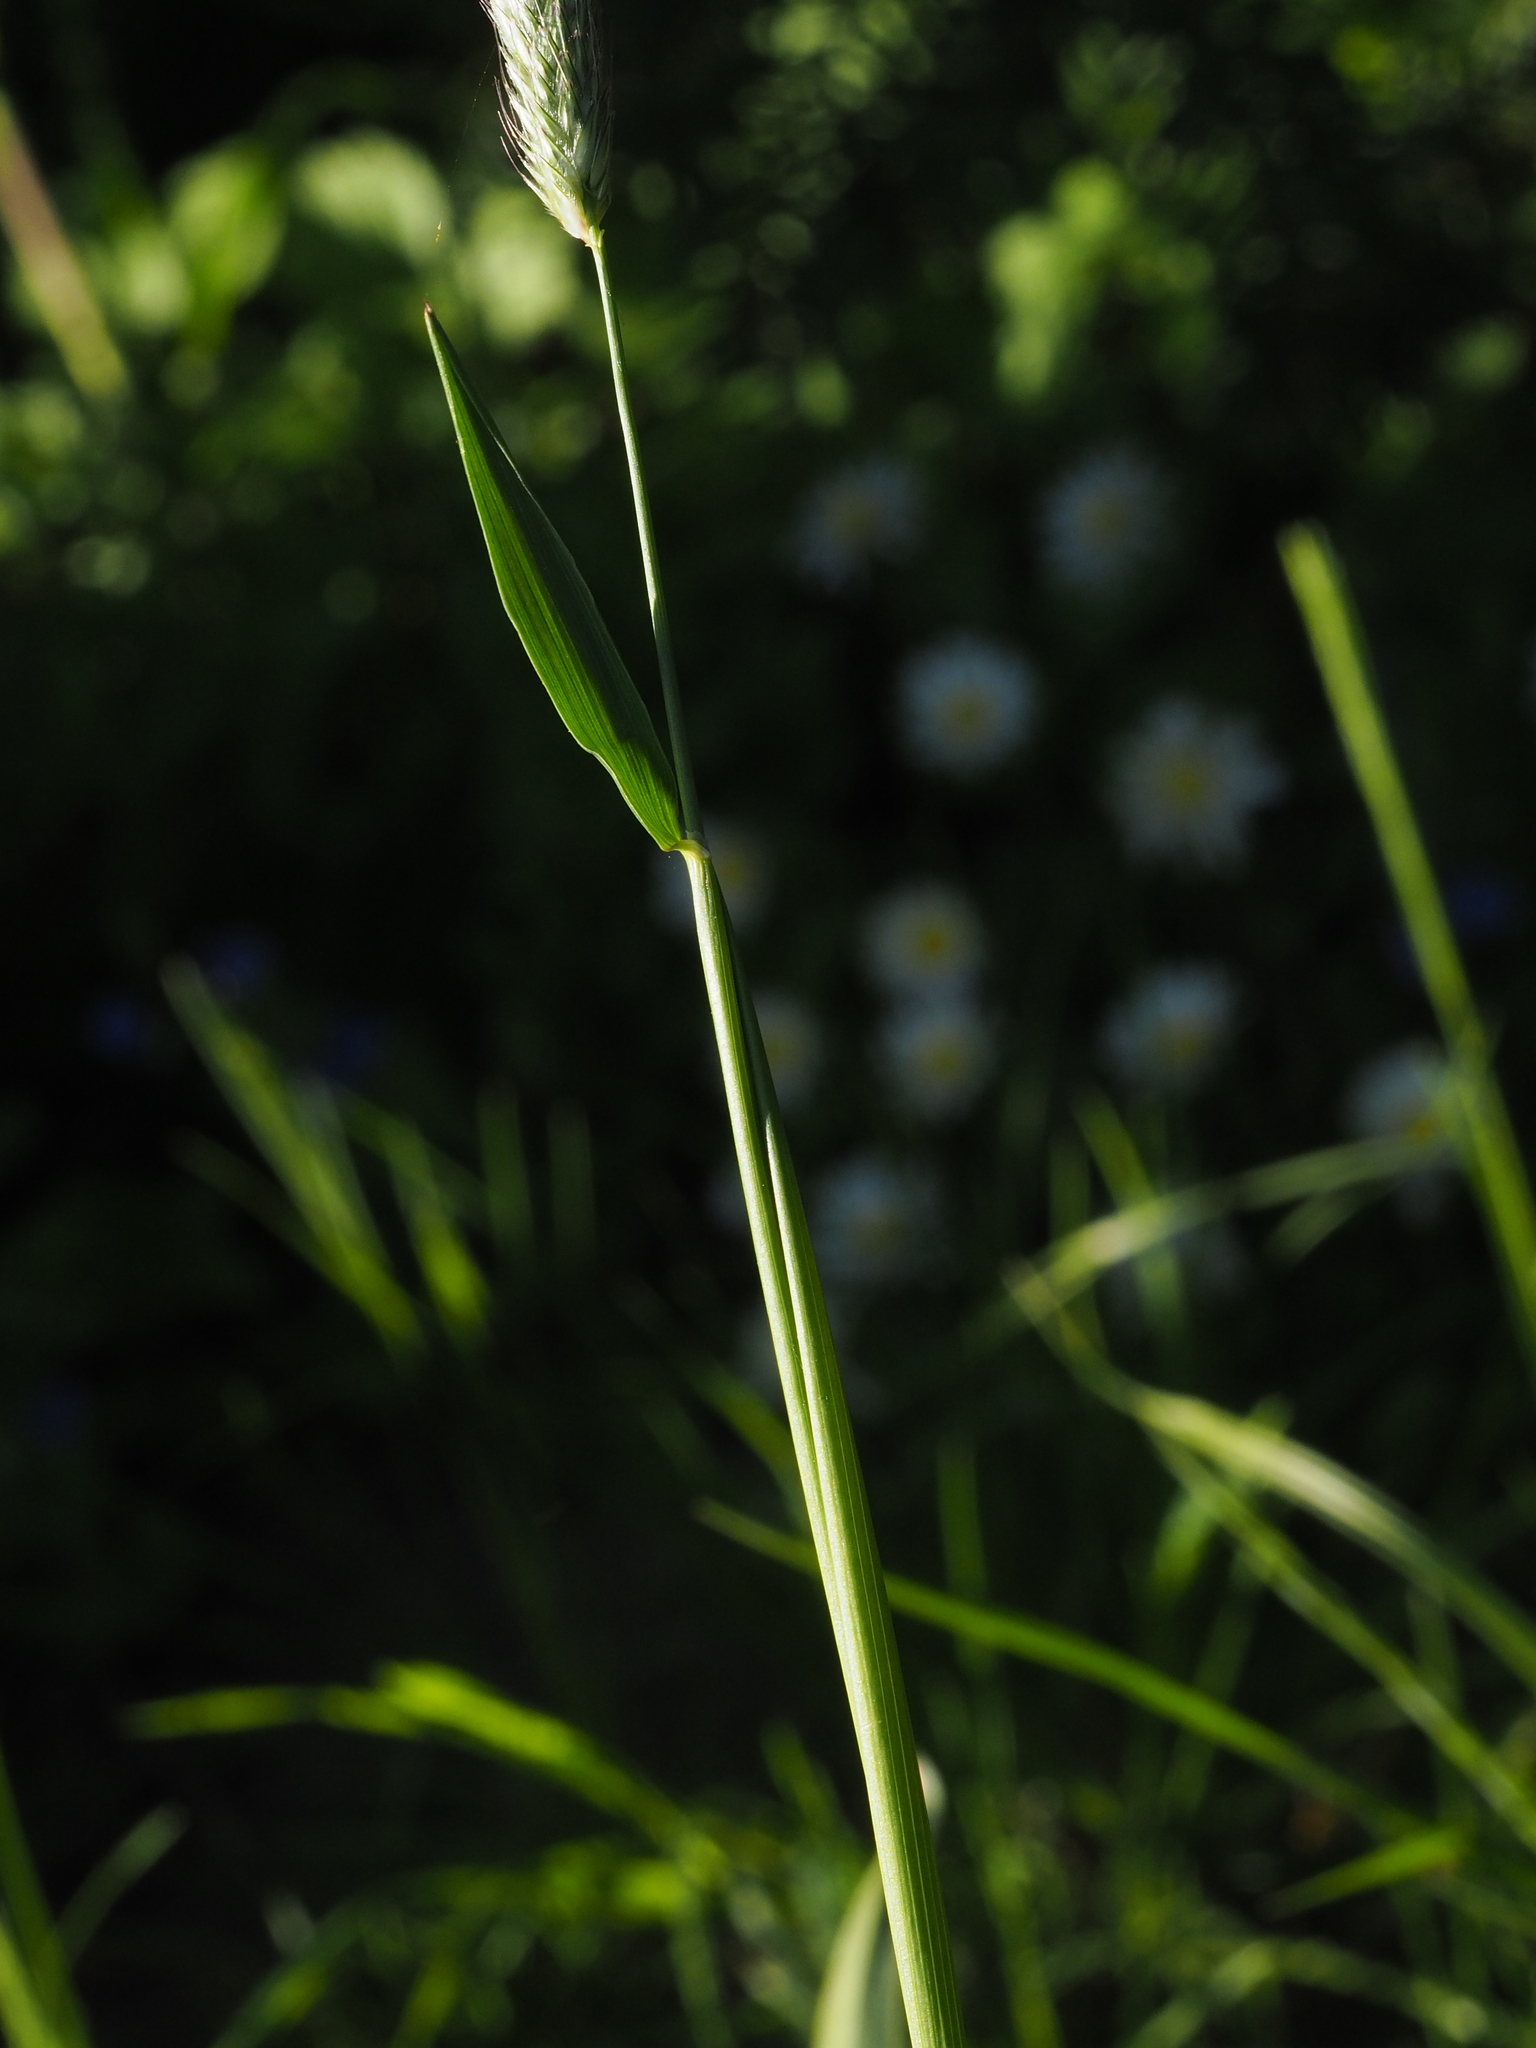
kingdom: Plantae
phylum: Tracheophyta
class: Liliopsida
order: Poales
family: Poaceae
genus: Alopecurus
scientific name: Alopecurus pratensis
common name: Meadow foxtail
